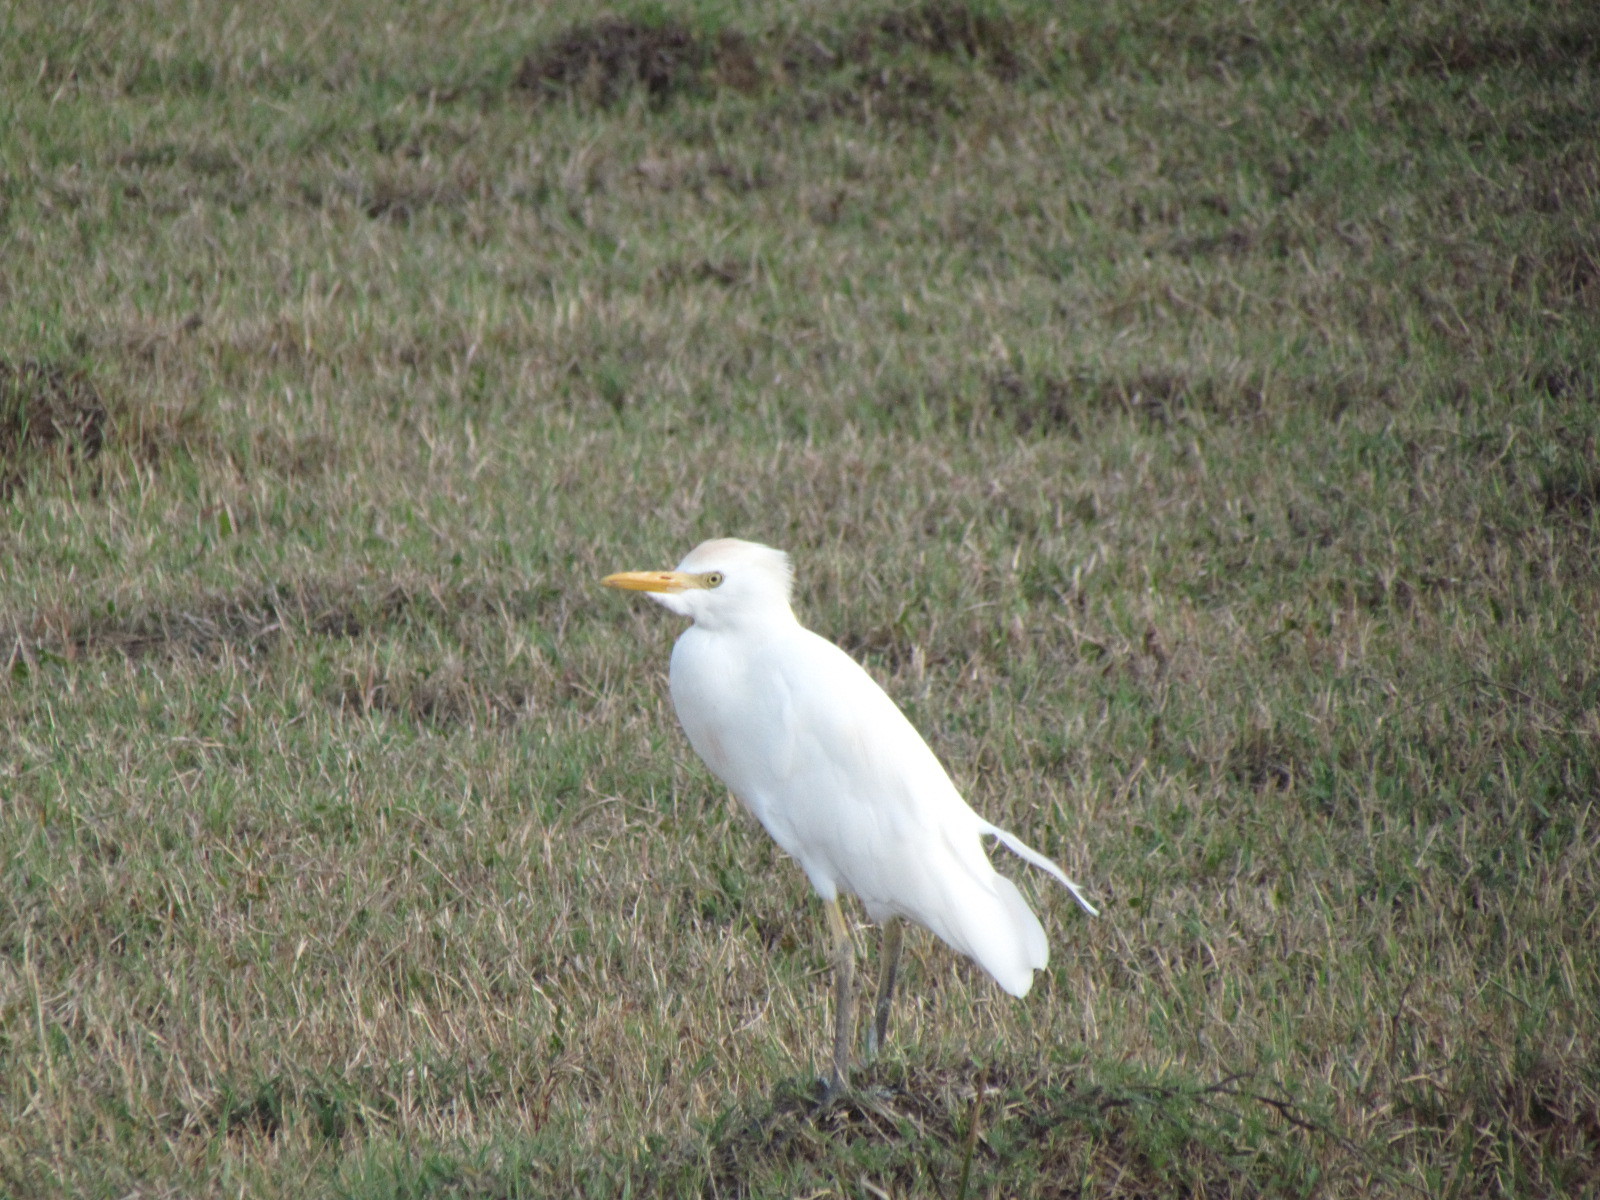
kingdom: Animalia
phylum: Chordata
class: Aves
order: Pelecaniformes
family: Ardeidae
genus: Bubulcus
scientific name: Bubulcus ibis
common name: Cattle egret
